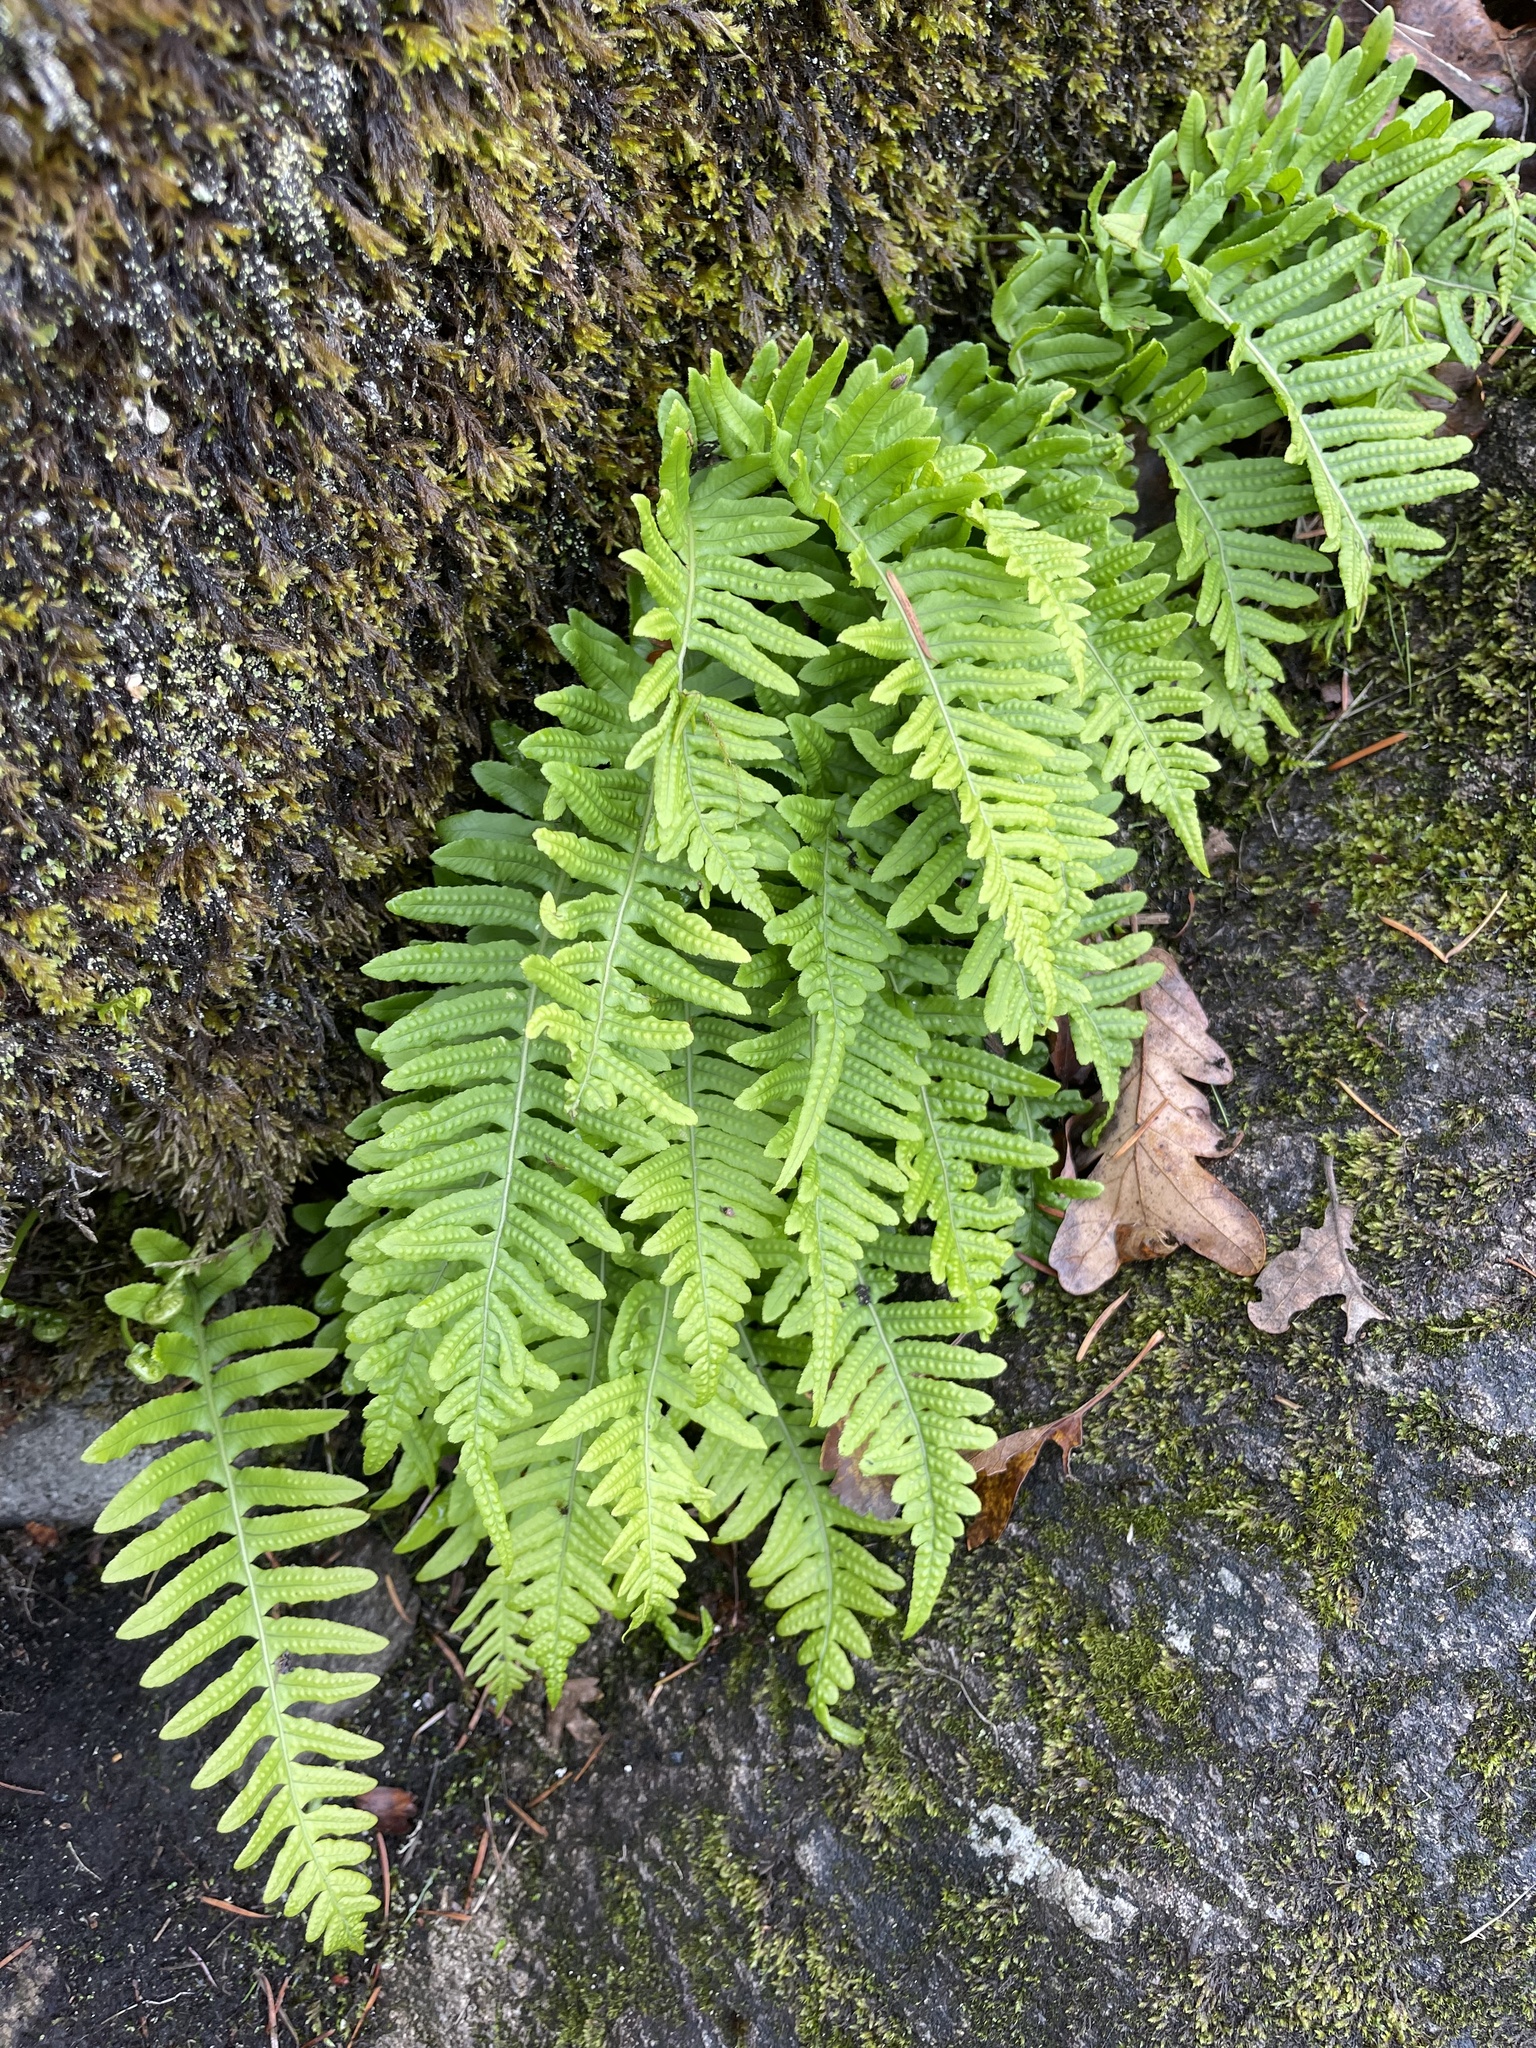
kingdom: Plantae
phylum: Tracheophyta
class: Polypodiopsida
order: Polypodiales
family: Polypodiaceae
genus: Polypodium
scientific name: Polypodium glycyrrhiza
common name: Licorice fern
